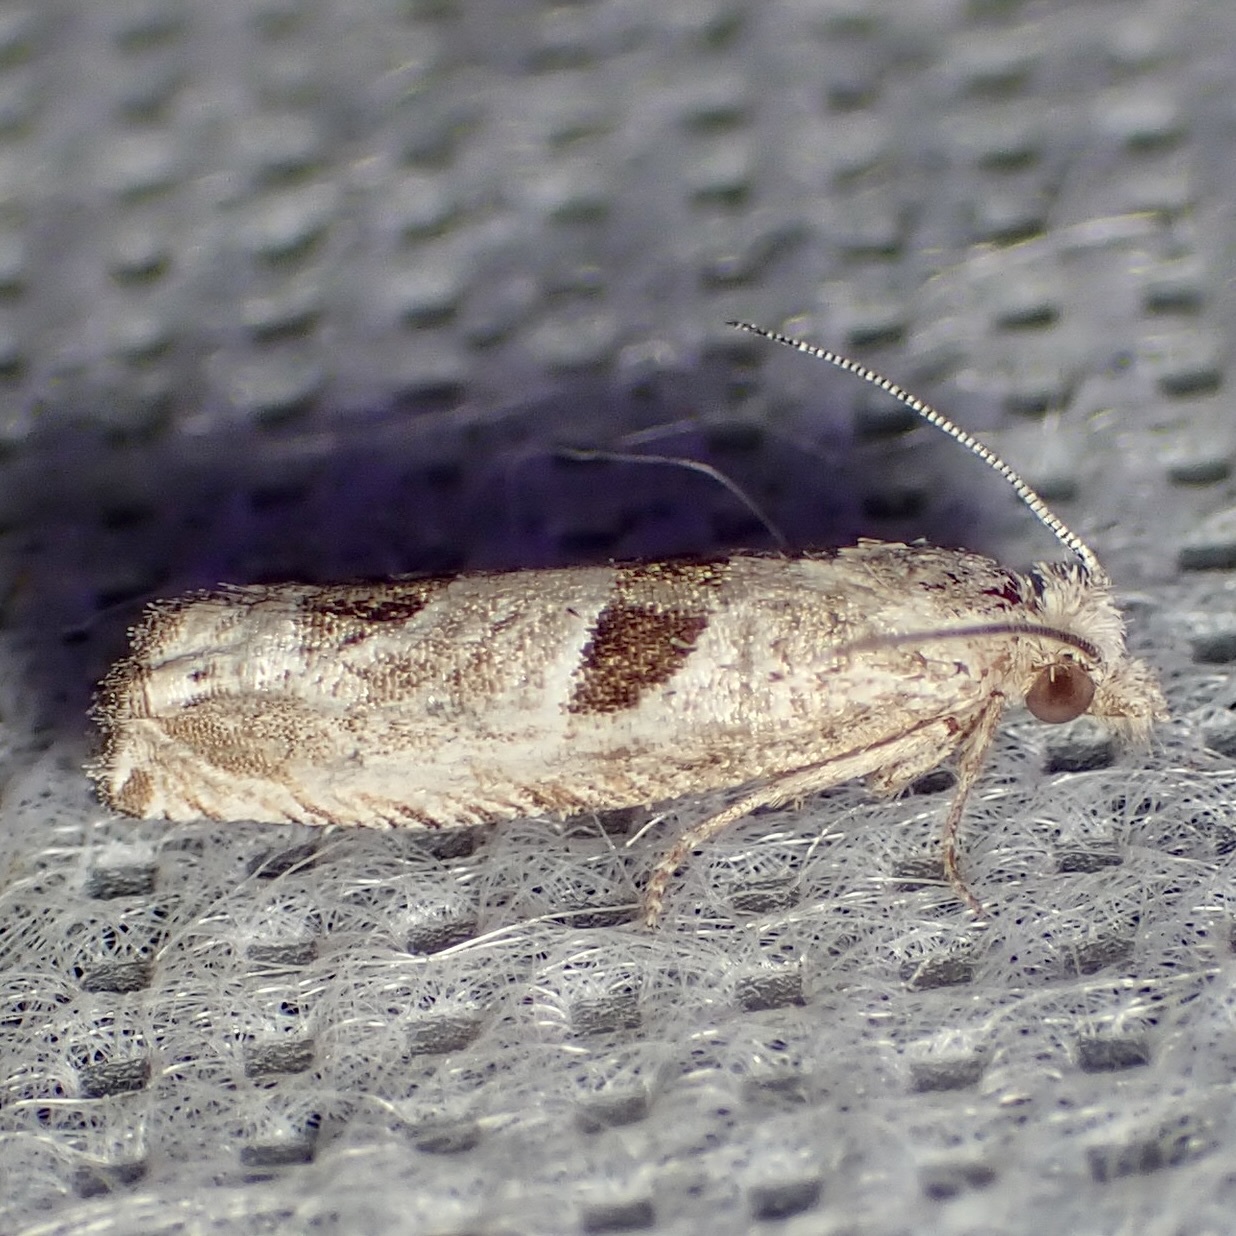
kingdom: Animalia
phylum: Arthropoda
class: Insecta
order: Lepidoptera
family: Tortricidae
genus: Pelochrista
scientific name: Pelochrista mirosignata
